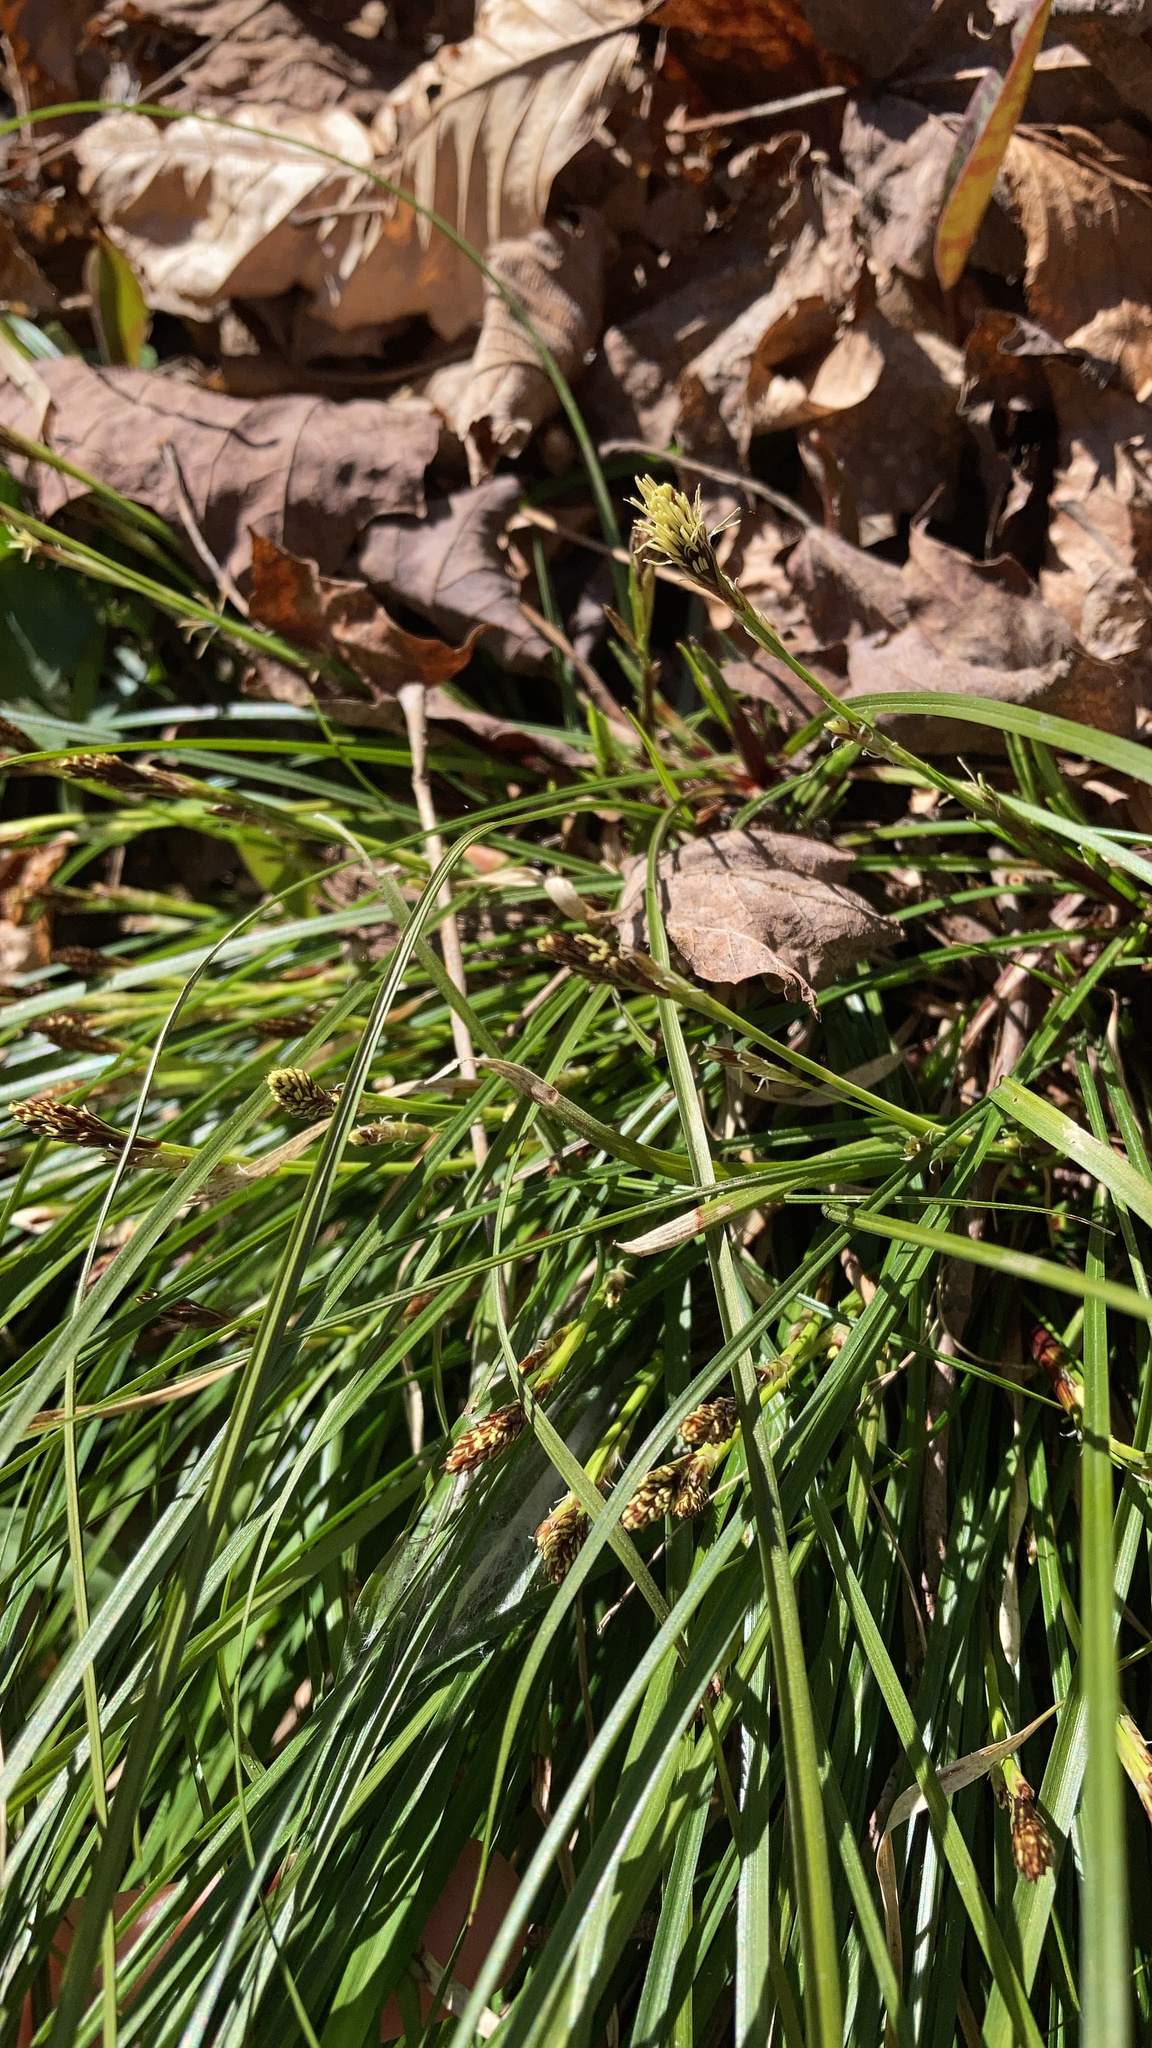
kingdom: Plantae
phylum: Tracheophyta
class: Liliopsida
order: Poales
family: Cyperaceae
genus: Carex
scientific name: Carex pedunculata
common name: Pedunculate sedge
